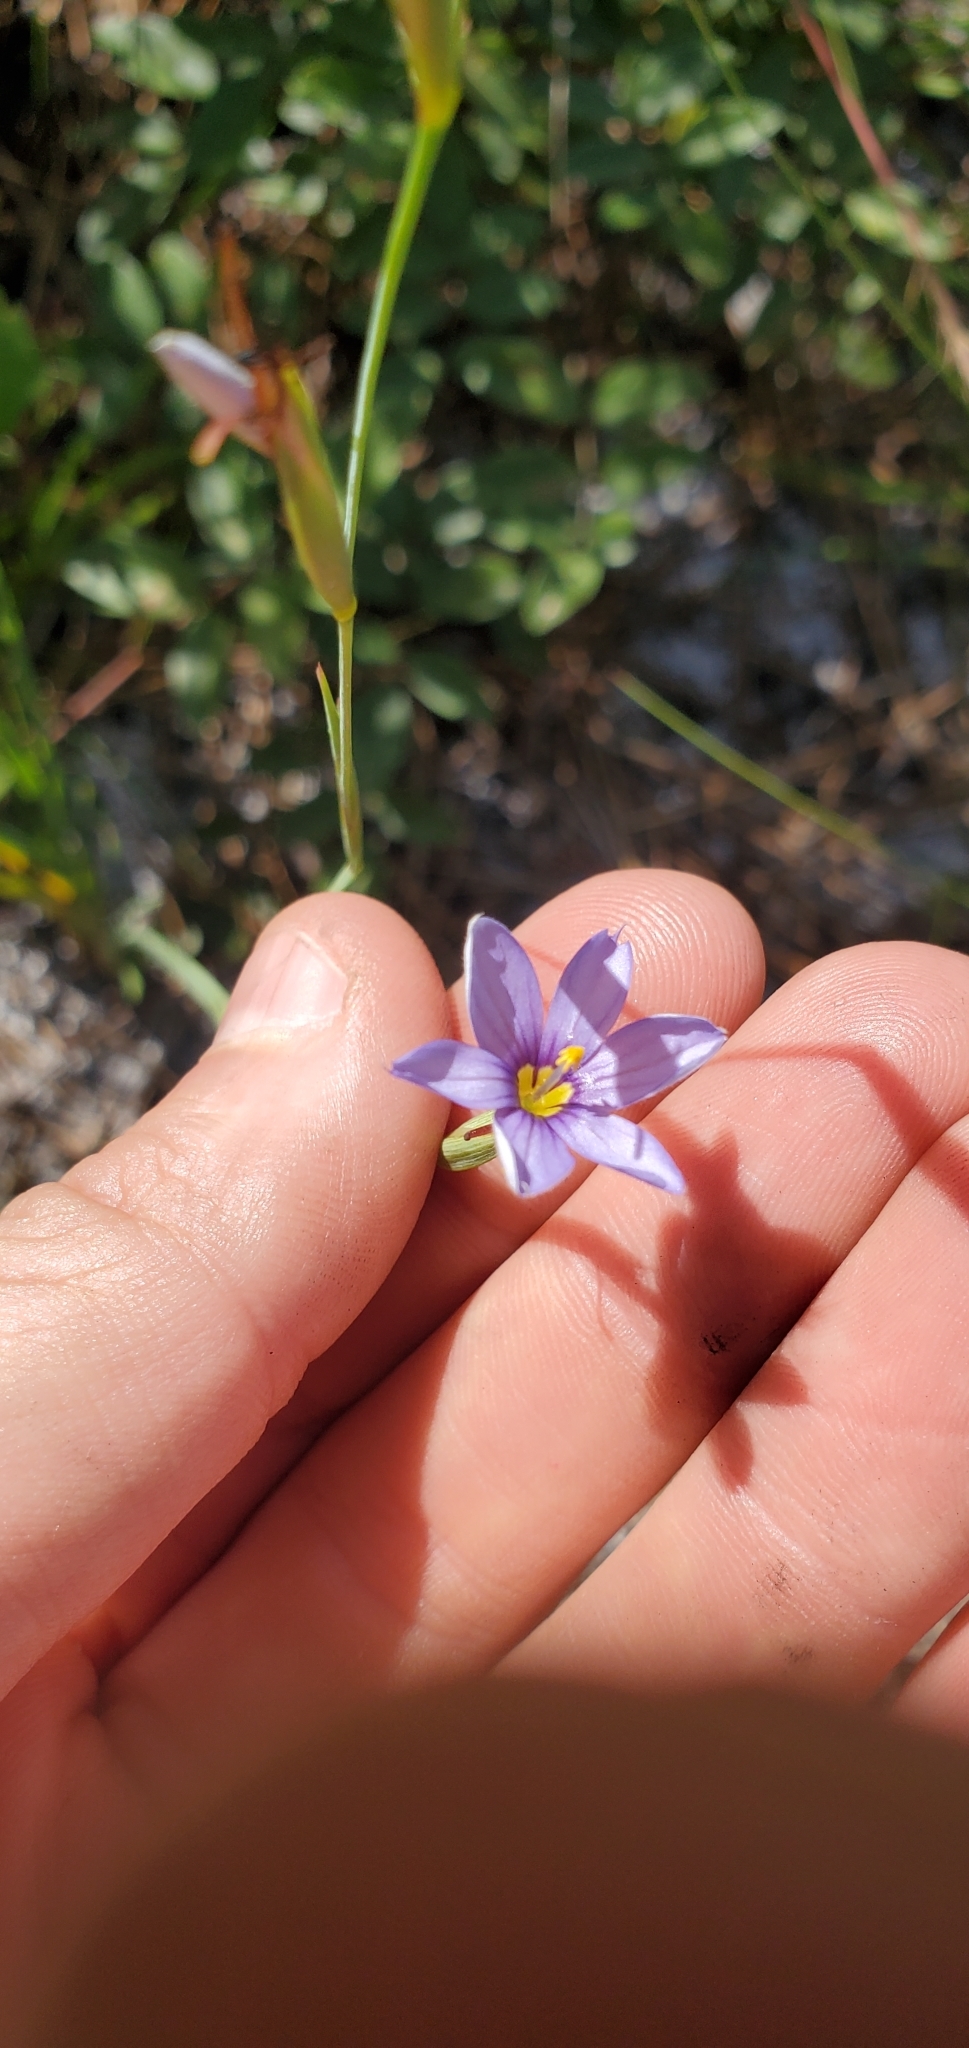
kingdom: Plantae
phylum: Tracheophyta
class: Liliopsida
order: Asparagales
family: Iridaceae
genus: Sisyrinchium
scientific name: Sisyrinchium xerophyllum
